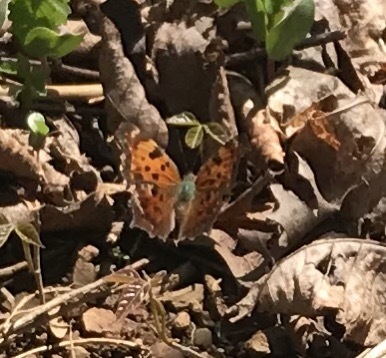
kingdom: Animalia
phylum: Arthropoda
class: Insecta
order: Lepidoptera
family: Nymphalidae
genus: Polygonia
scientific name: Polygonia comma
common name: Eastern comma
